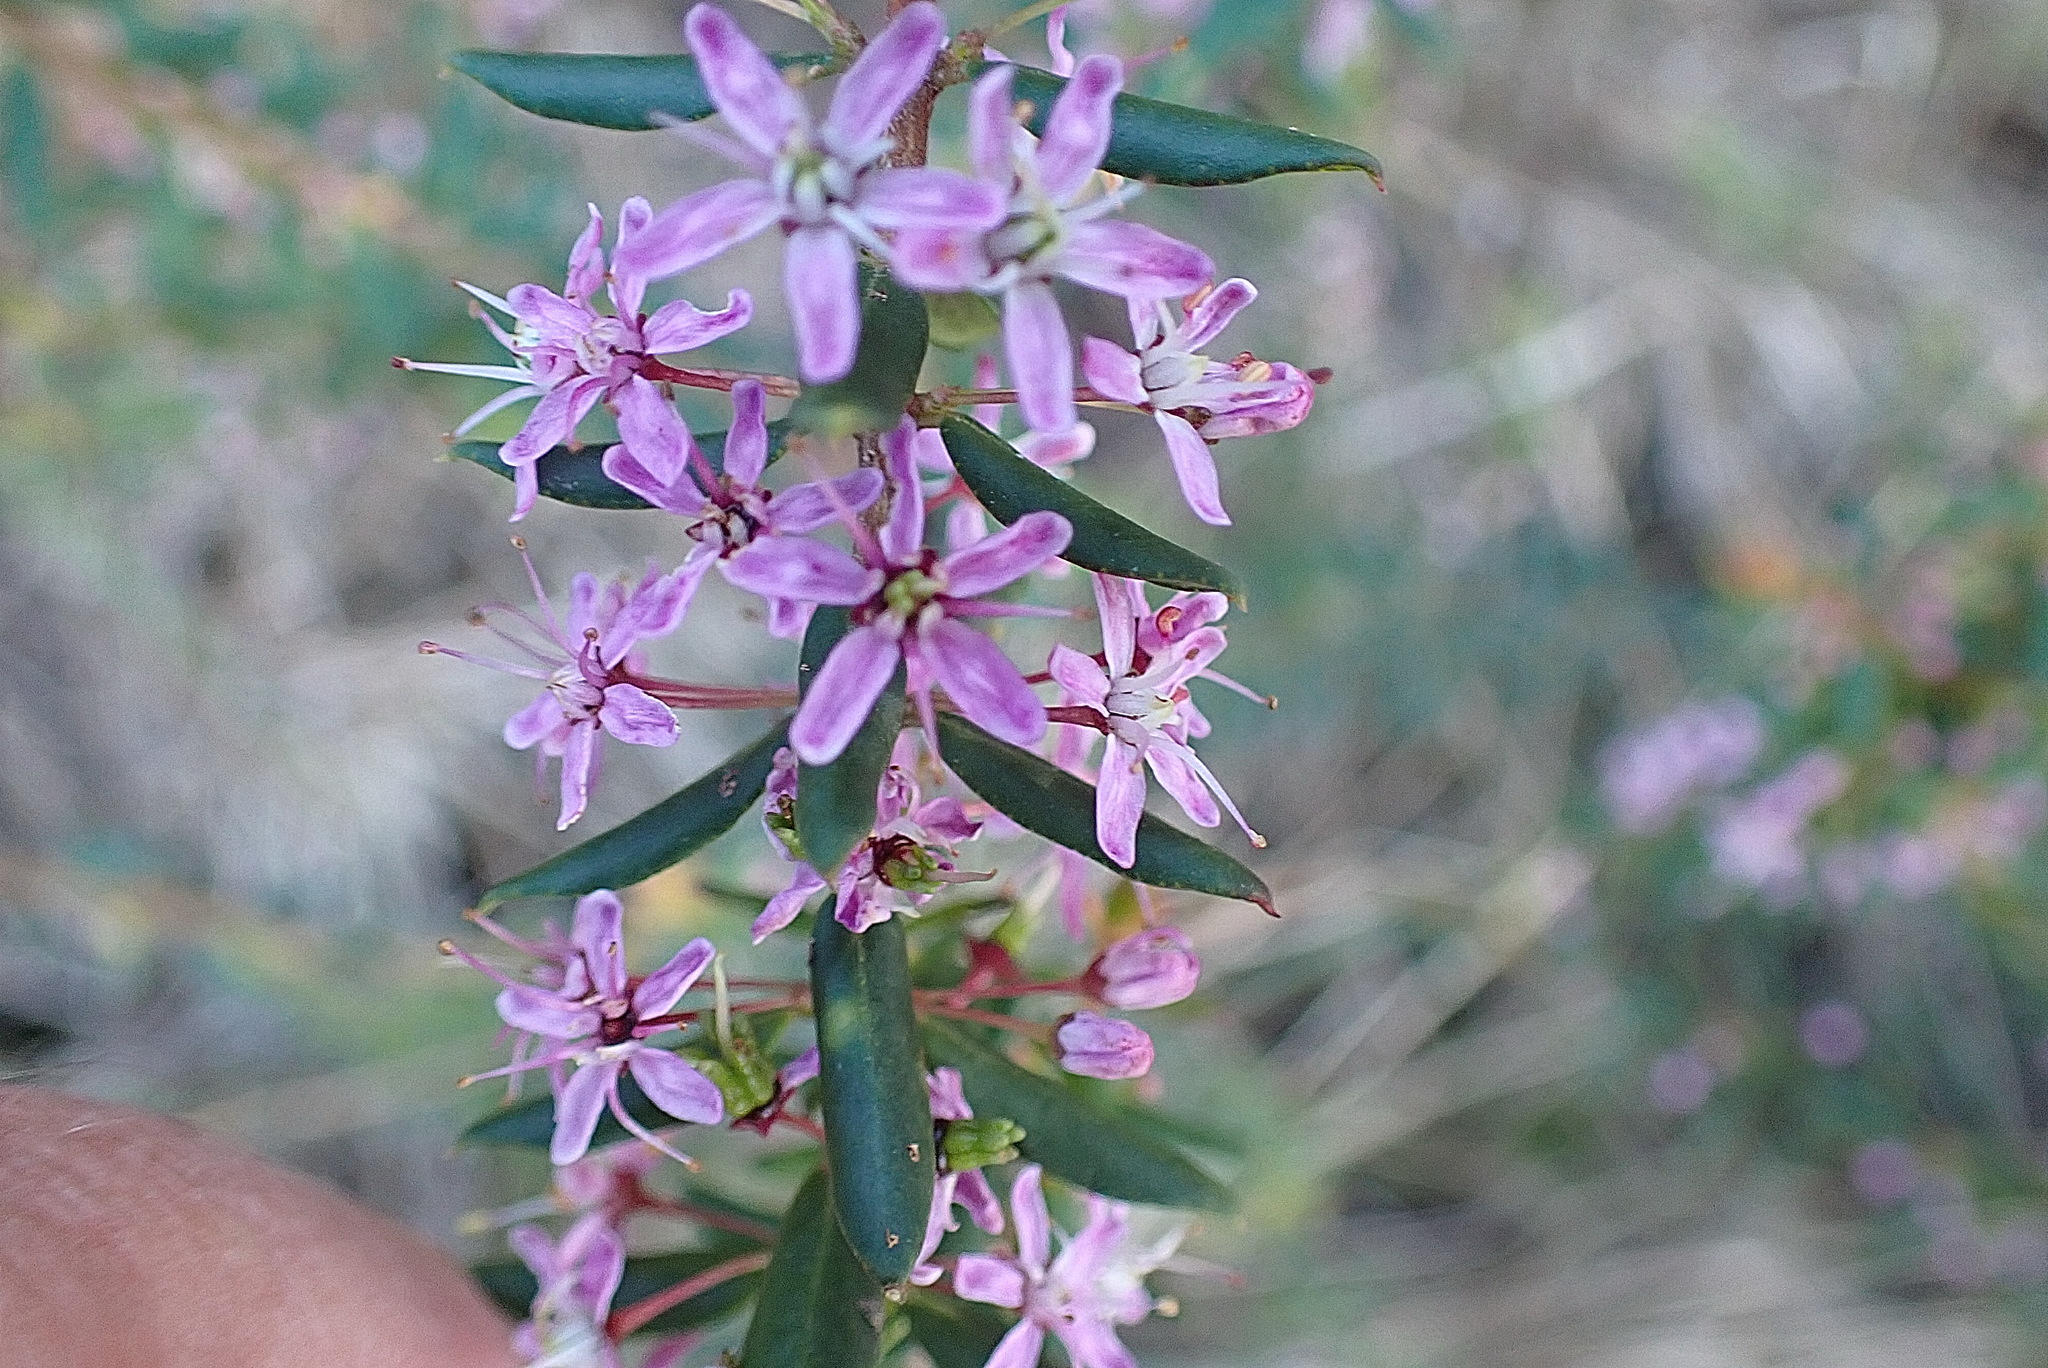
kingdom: Plantae
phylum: Tracheophyta
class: Magnoliopsida
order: Sapindales
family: Rutaceae
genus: Agathosma
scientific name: Agathosma ovata
